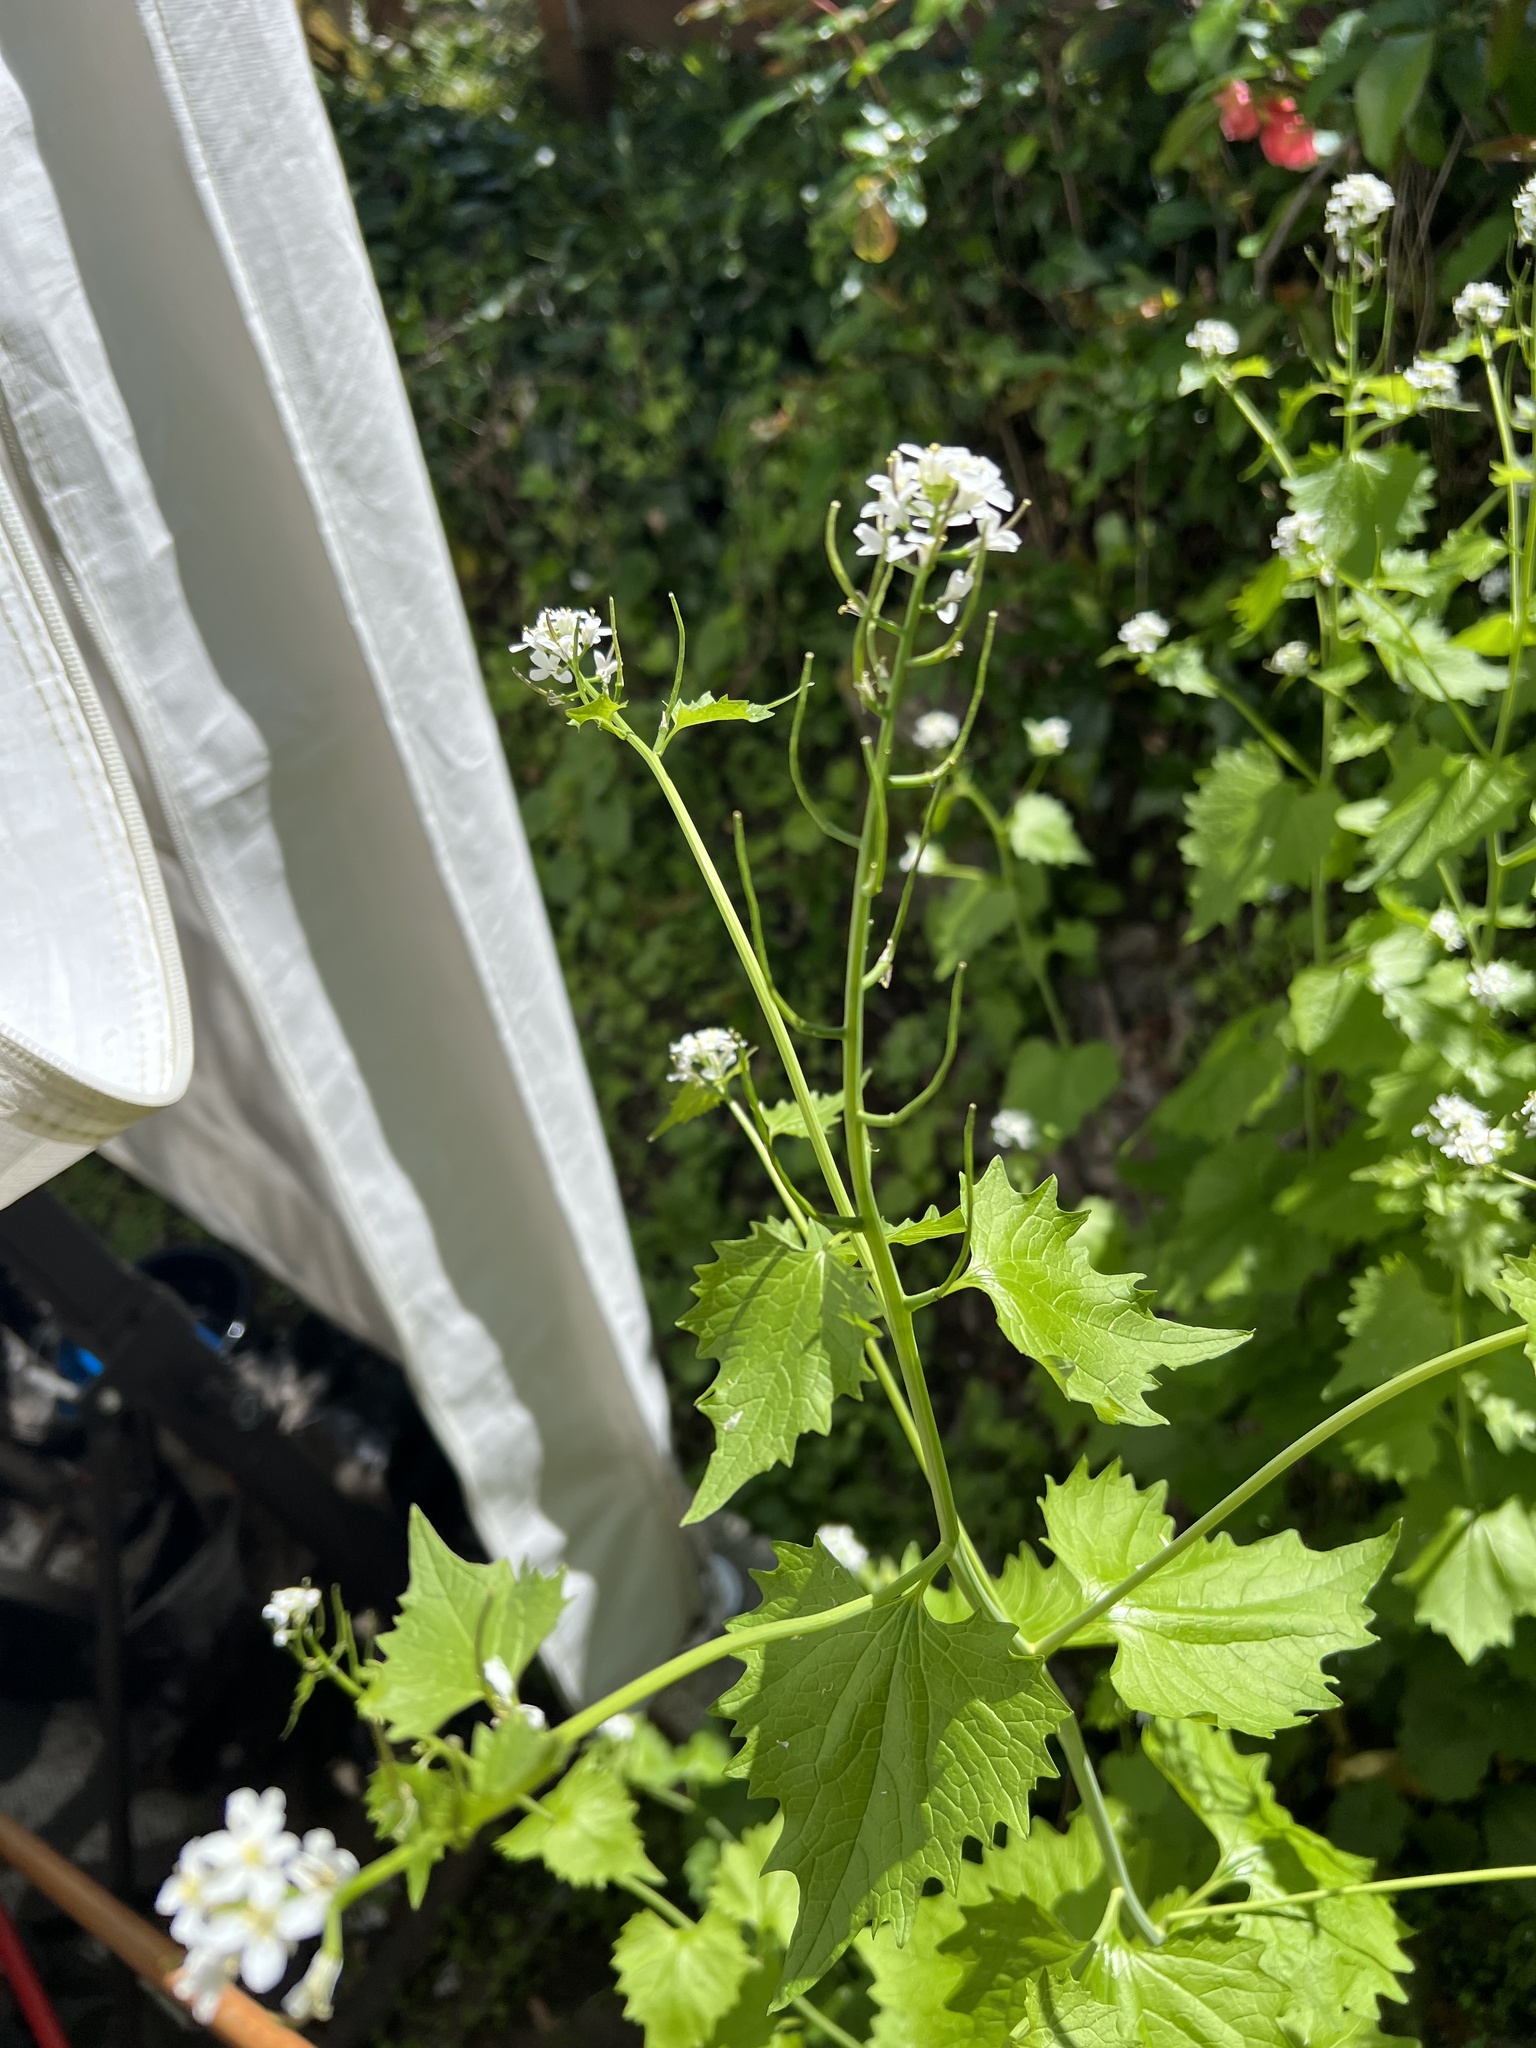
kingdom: Plantae
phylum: Tracheophyta
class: Magnoliopsida
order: Brassicales
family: Brassicaceae
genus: Alliaria
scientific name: Alliaria petiolata
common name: Garlic mustard
